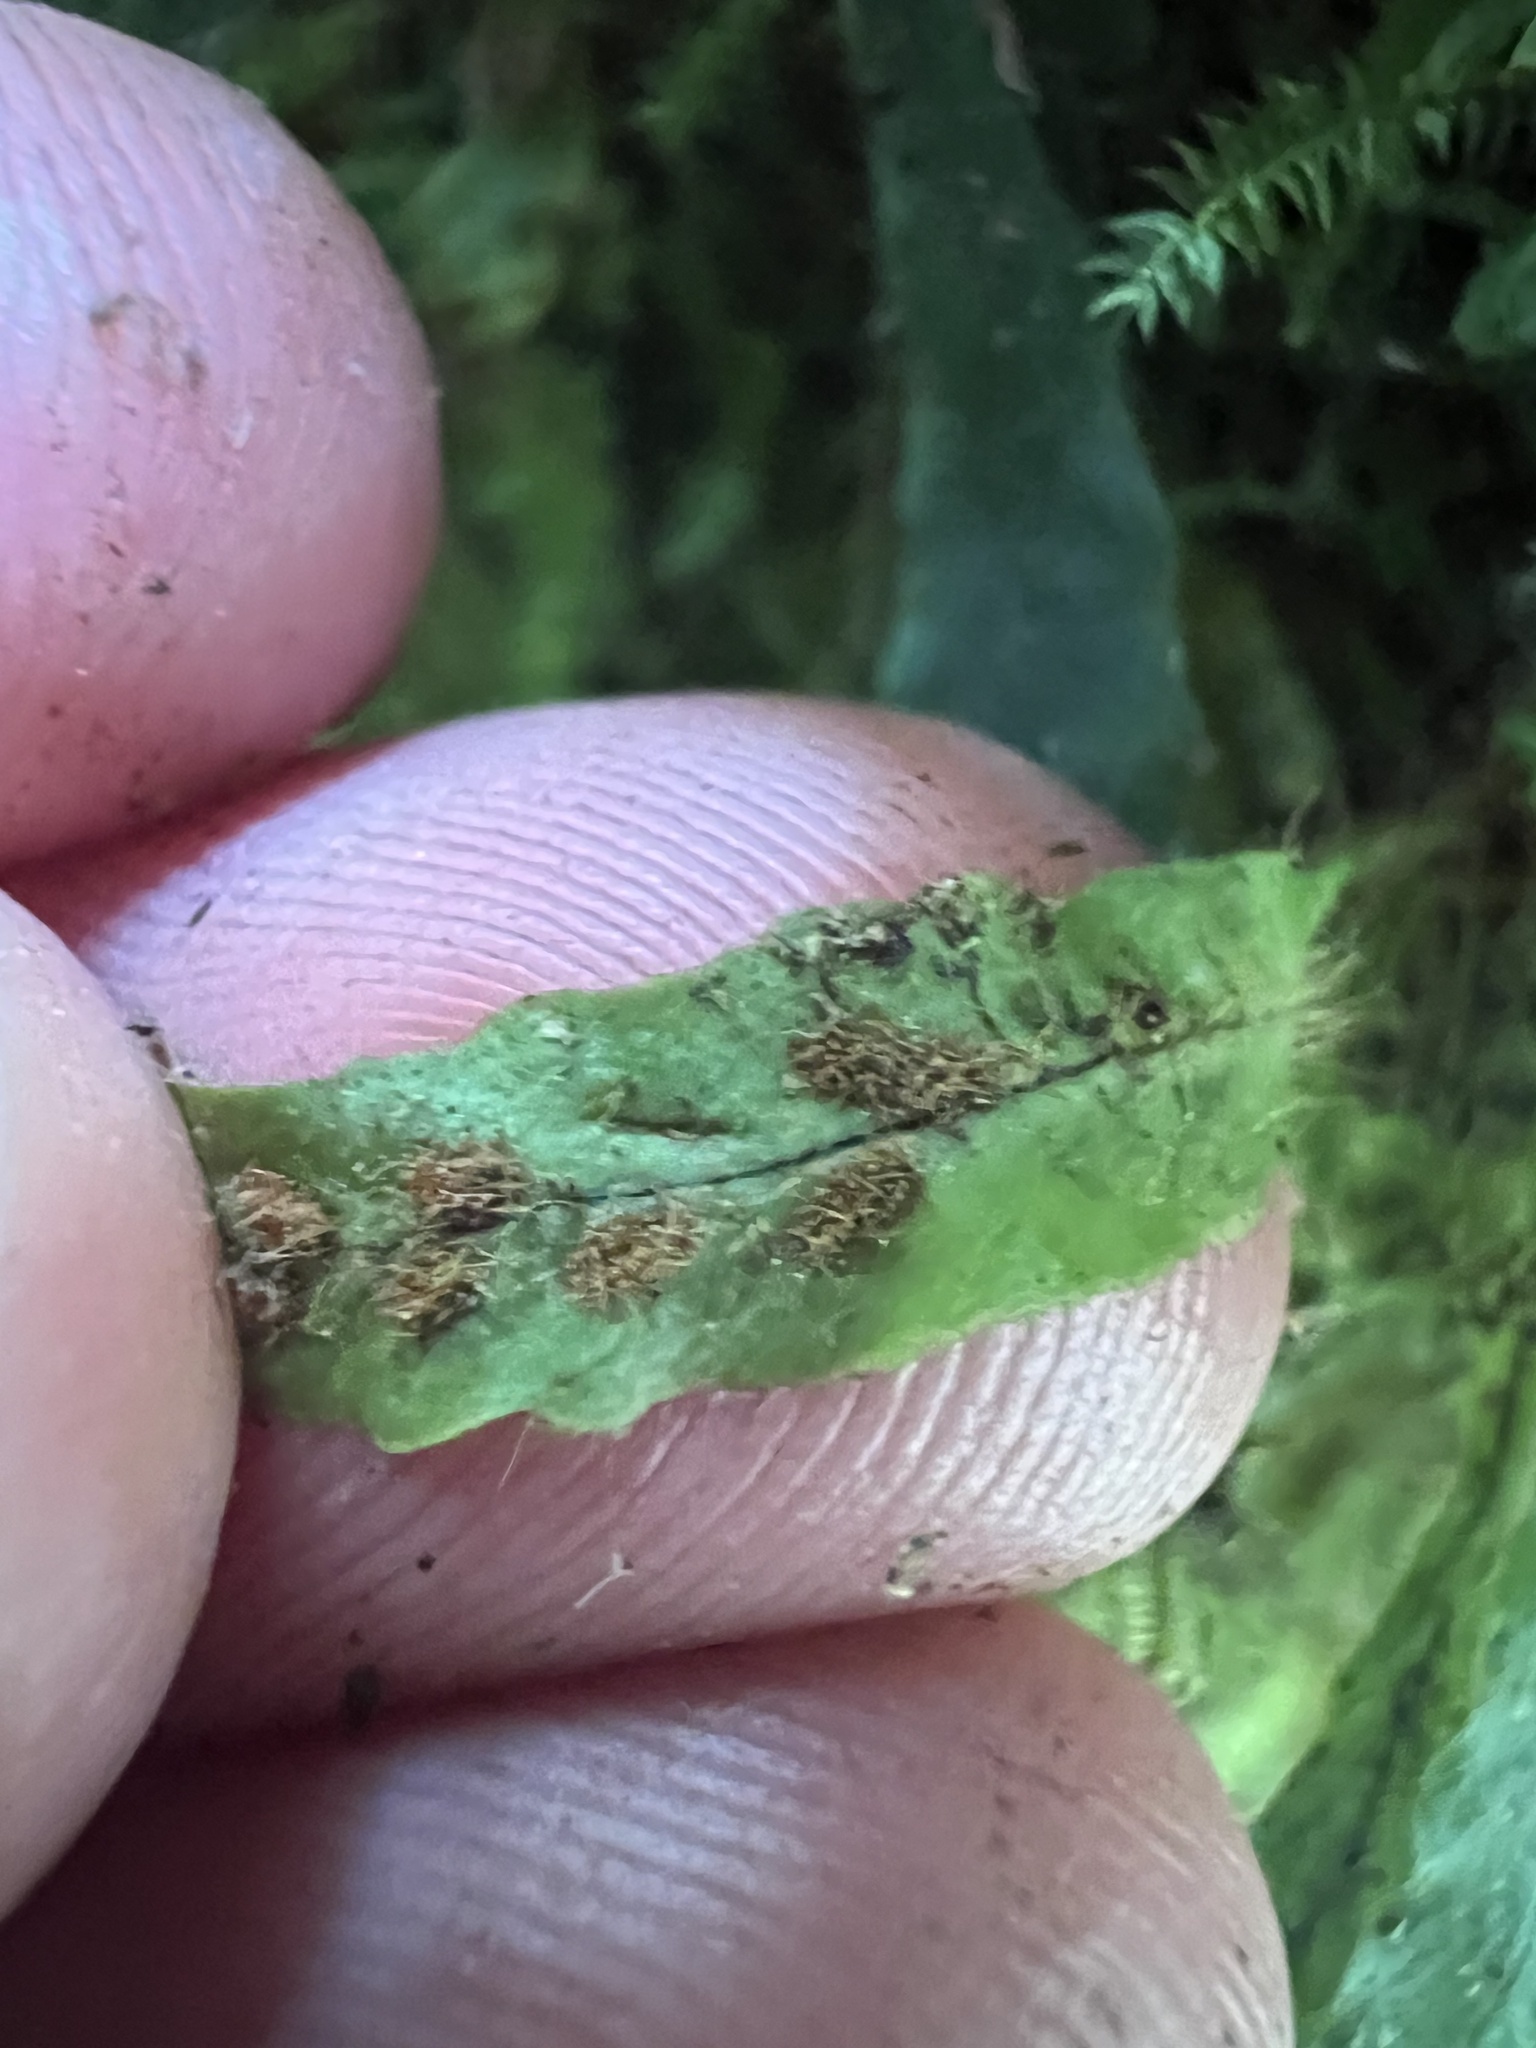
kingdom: Plantae
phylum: Tracheophyta
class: Polypodiopsida
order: Polypodiales
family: Polypodiaceae
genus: Notogrammitis
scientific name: Notogrammitis ciliata
